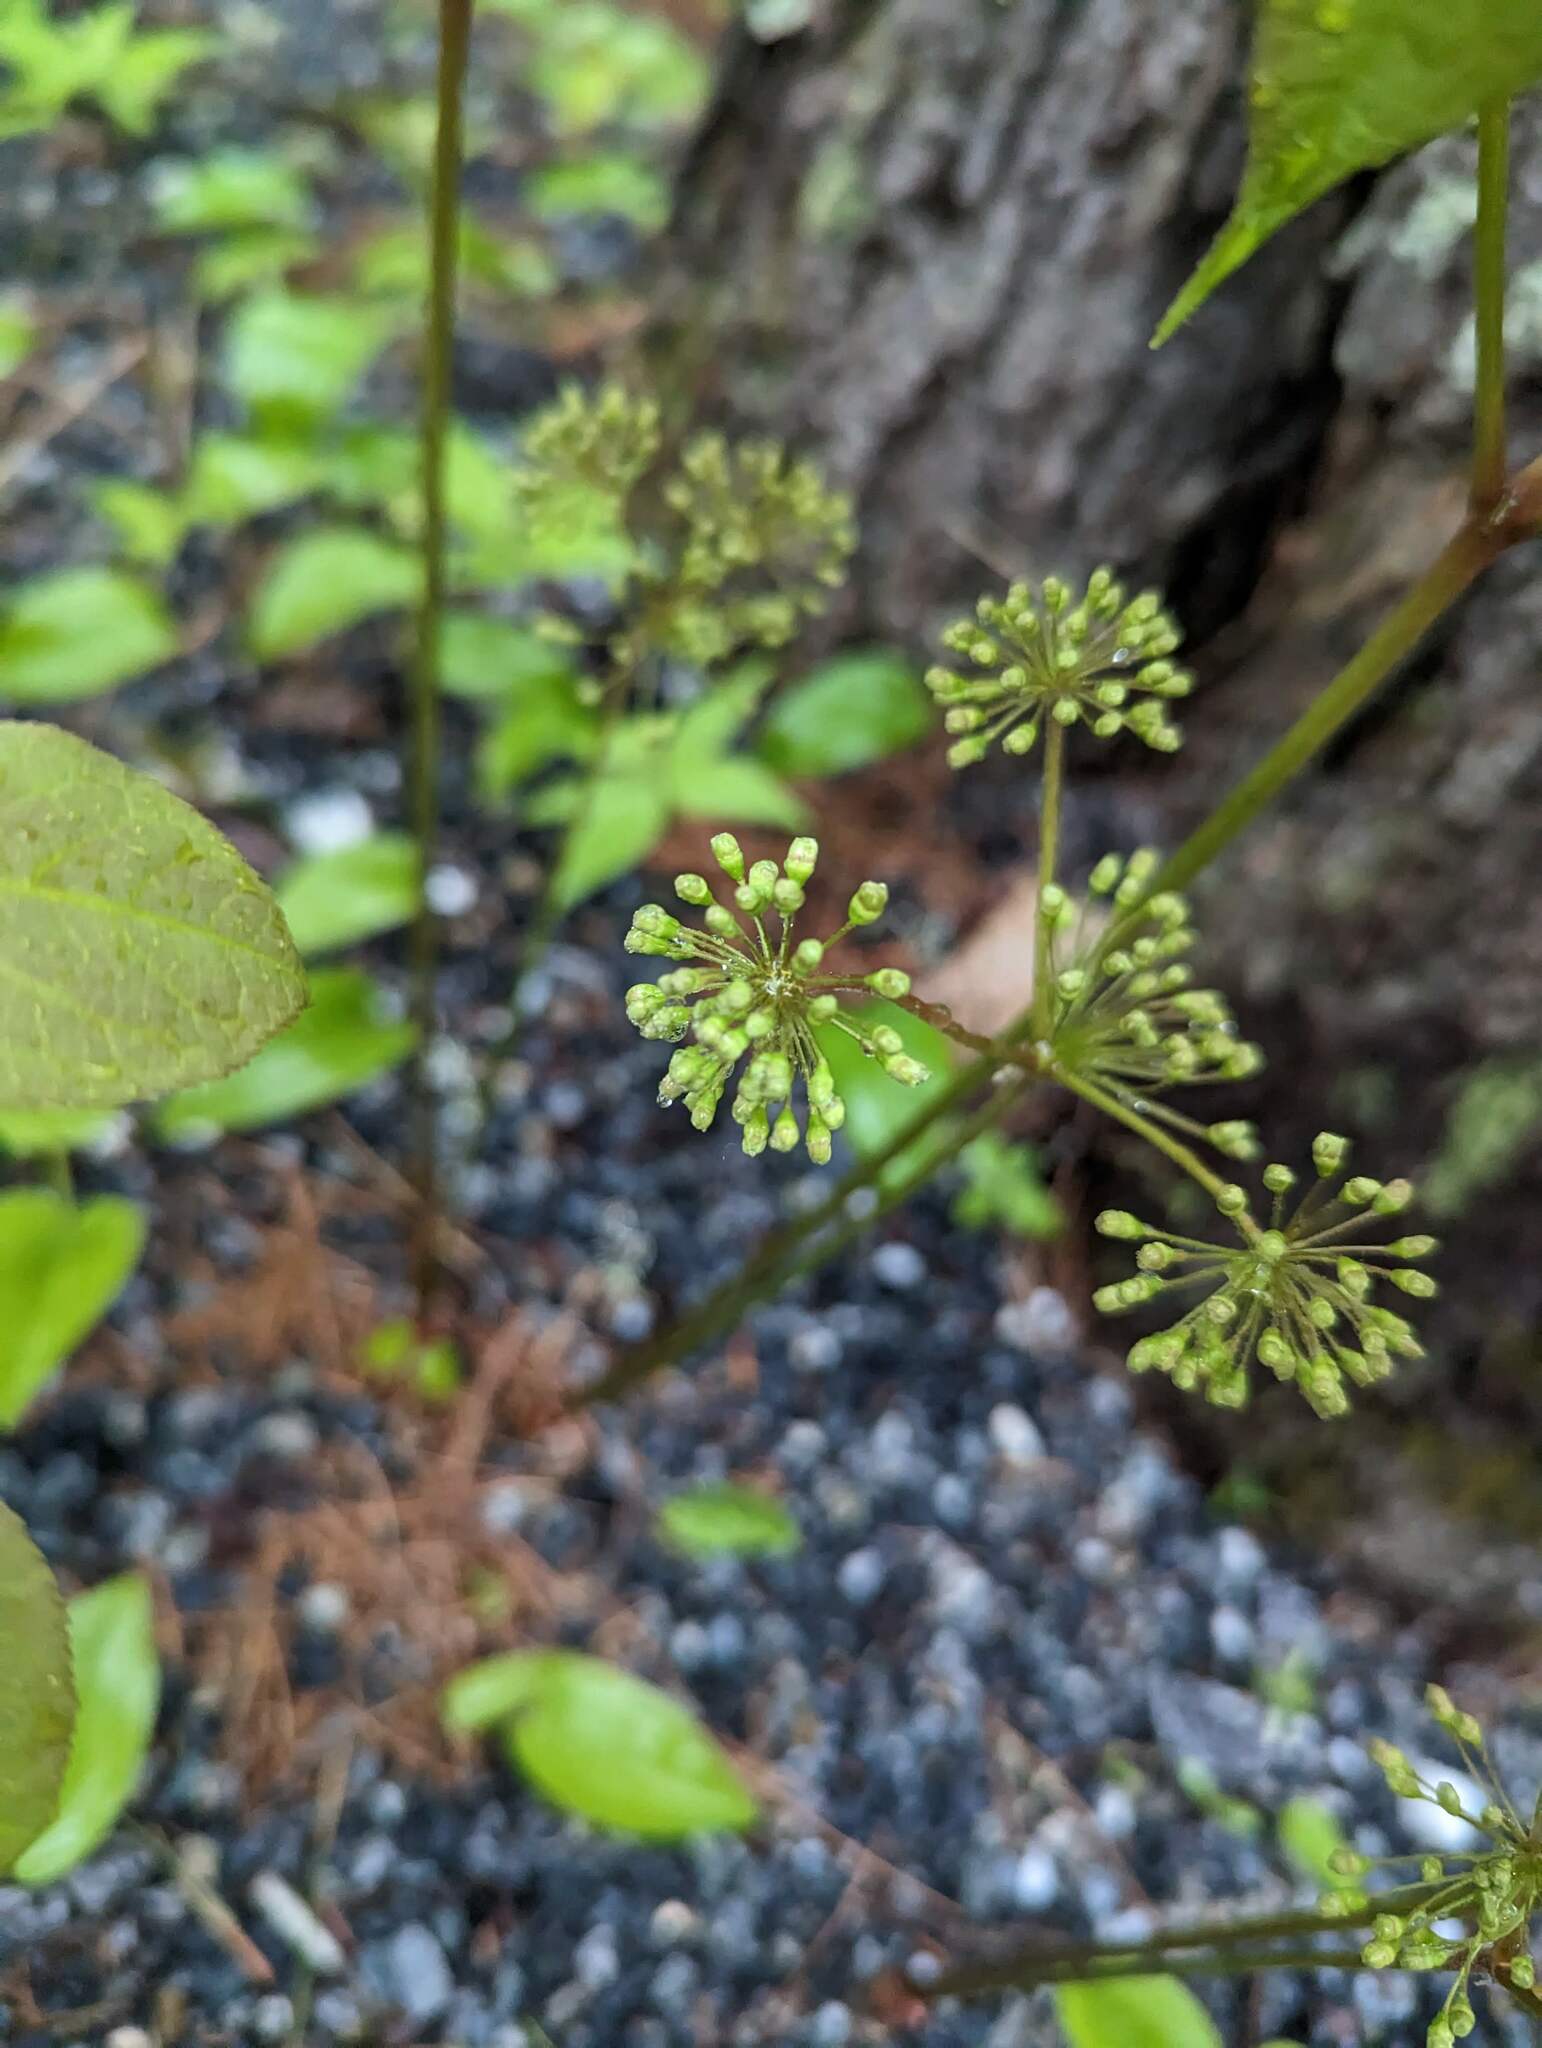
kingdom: Plantae
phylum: Tracheophyta
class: Magnoliopsida
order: Apiales
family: Araliaceae
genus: Aralia
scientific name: Aralia nudicaulis
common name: Wild sarsaparilla
